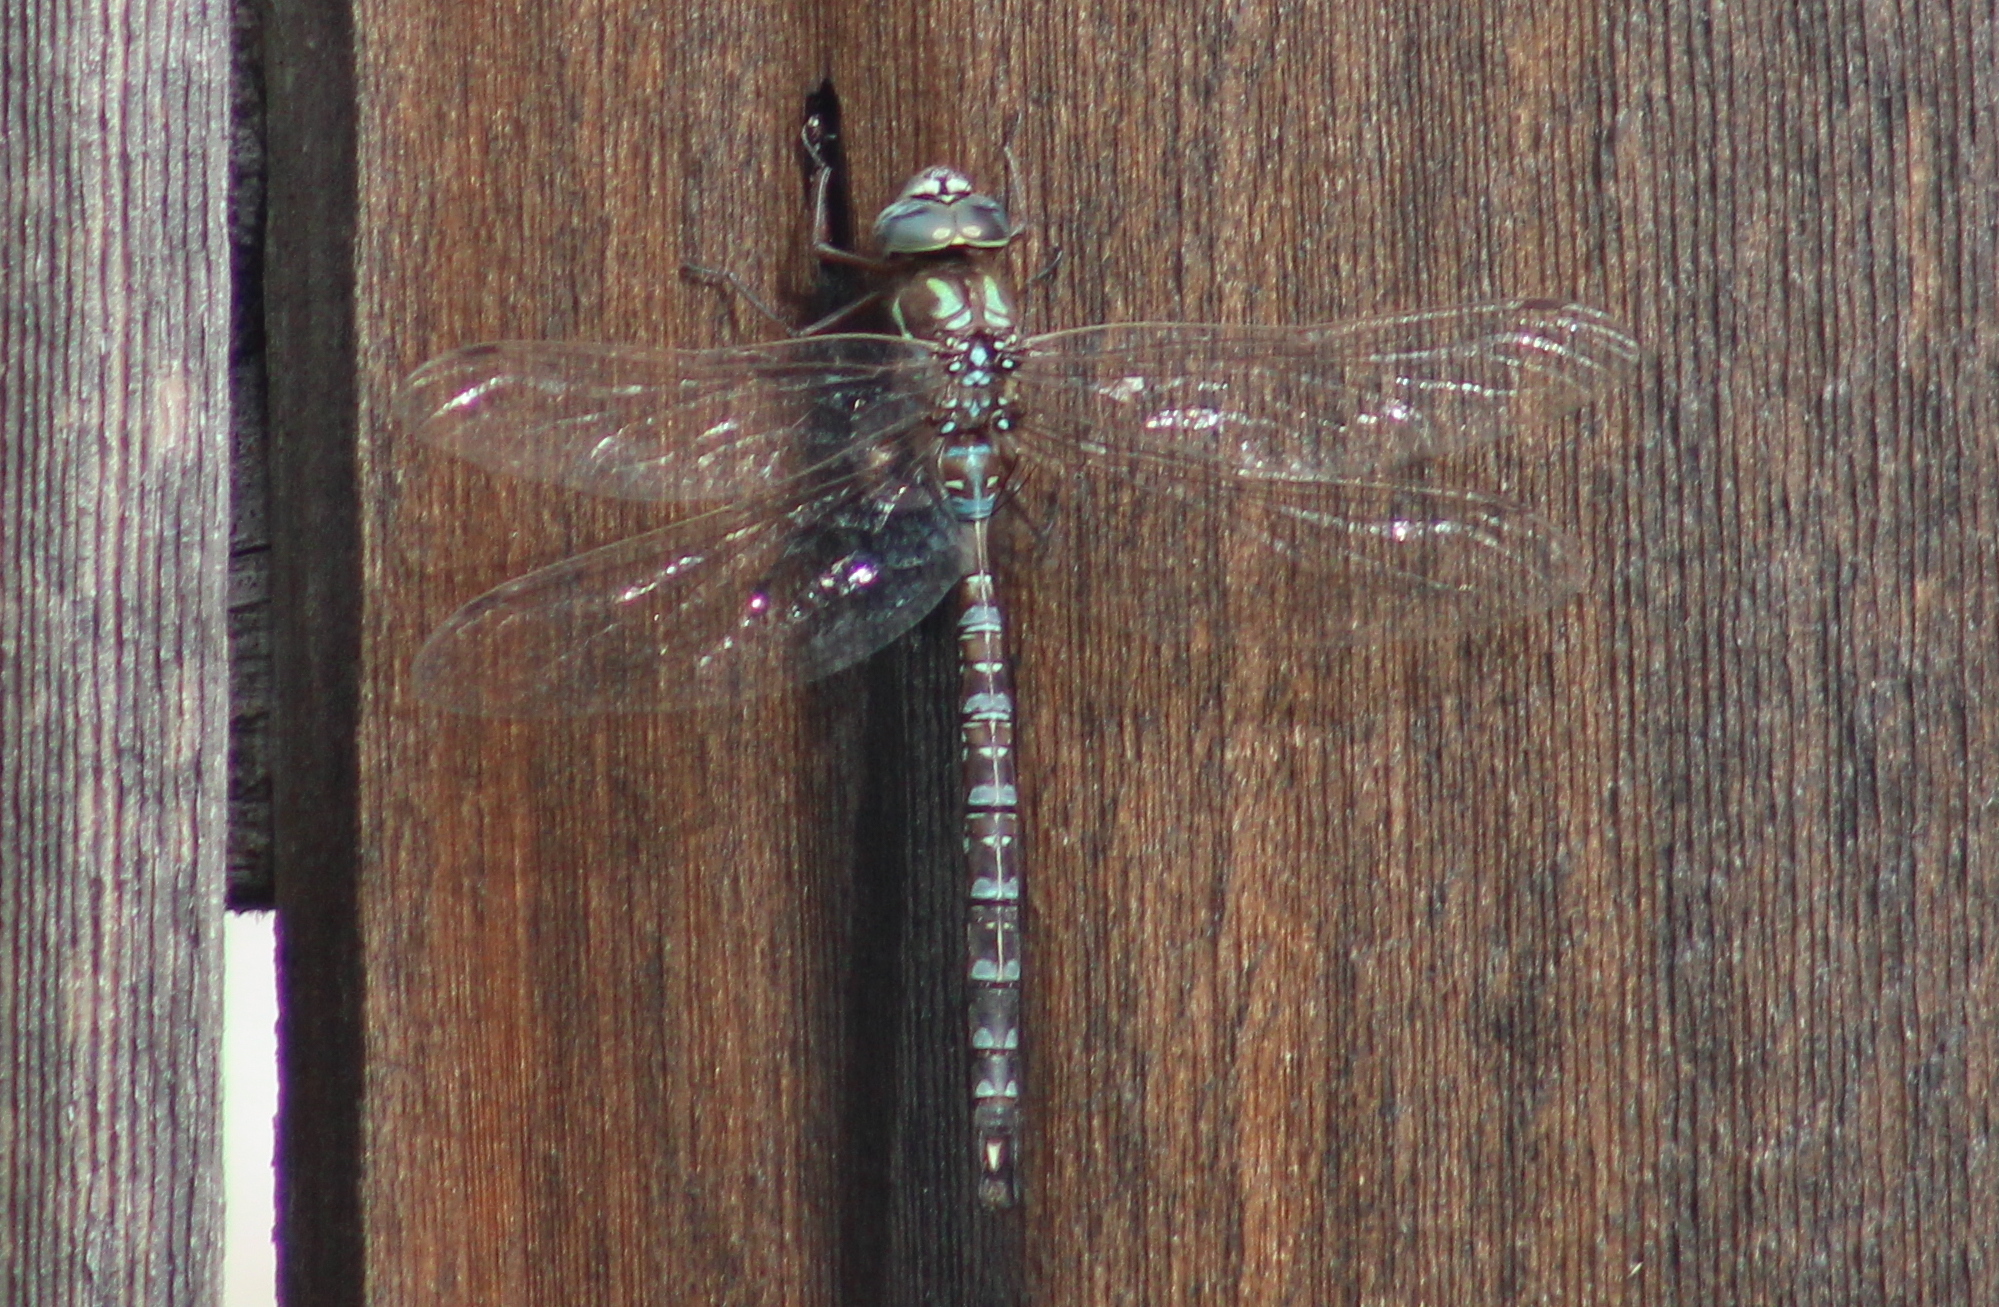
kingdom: Animalia
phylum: Arthropoda
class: Insecta
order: Odonata
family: Aeshnidae
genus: Aeshna
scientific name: Aeshna umbrosa
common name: Shadow darner
